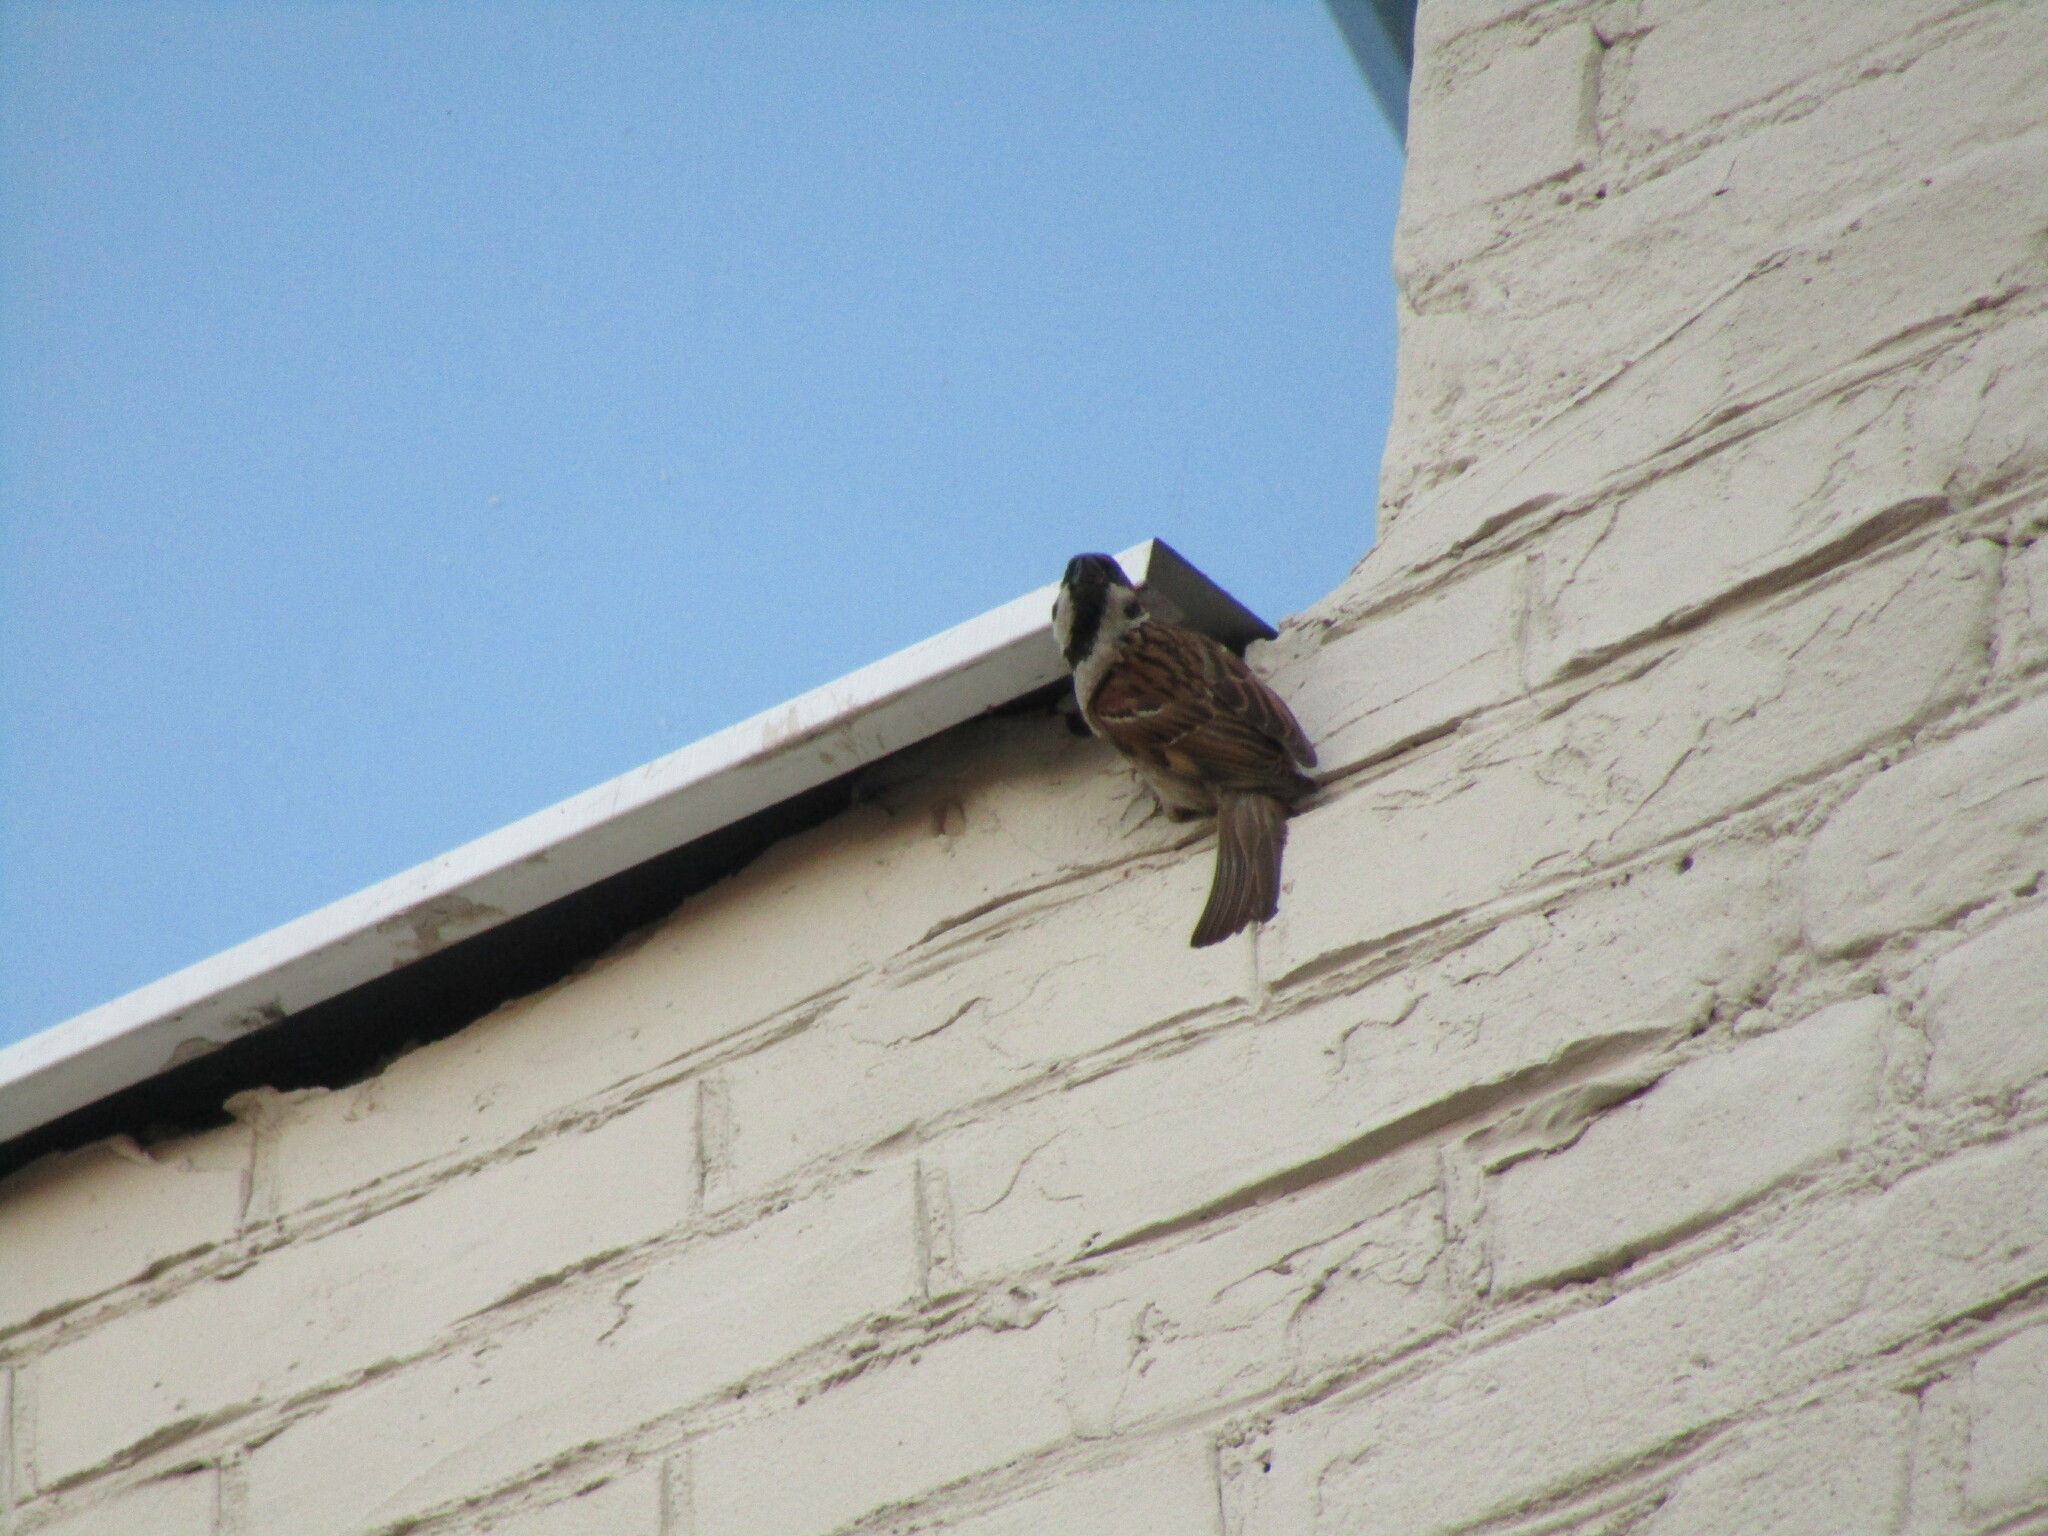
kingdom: Animalia
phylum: Chordata
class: Aves
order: Passeriformes
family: Passeridae
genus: Passer
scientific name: Passer montanus
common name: Eurasian tree sparrow
